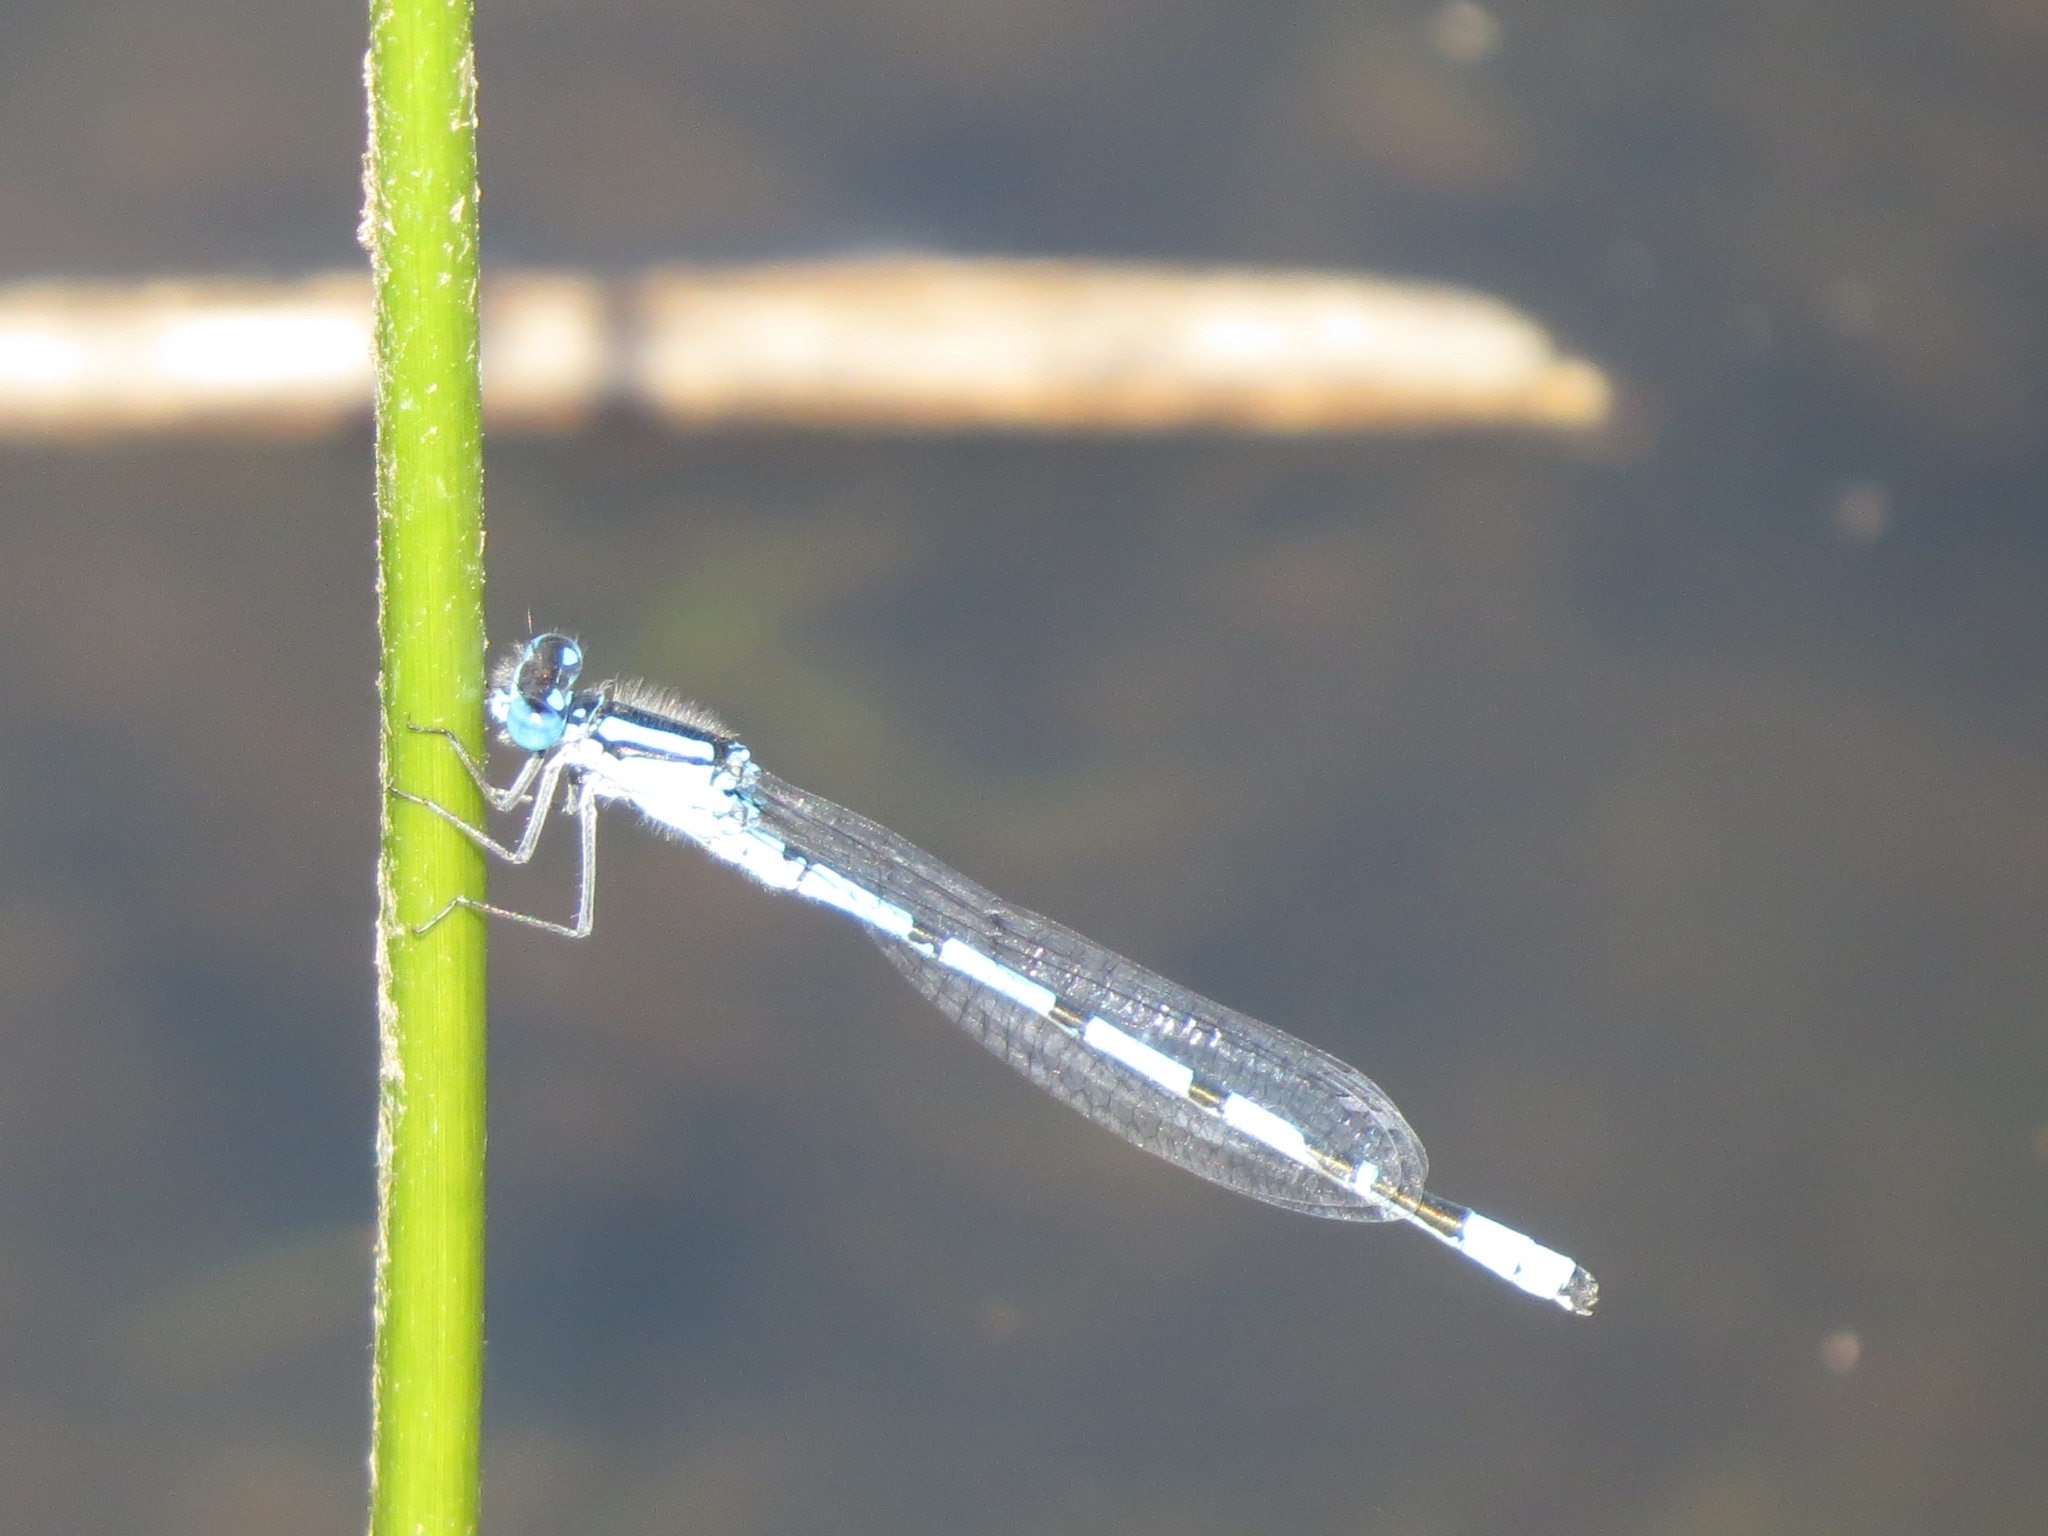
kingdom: Animalia
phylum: Arthropoda
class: Insecta
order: Odonata
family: Coenagrionidae
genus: Enallagma
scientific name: Enallagma cyathigerum
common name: Common blue damselfly
